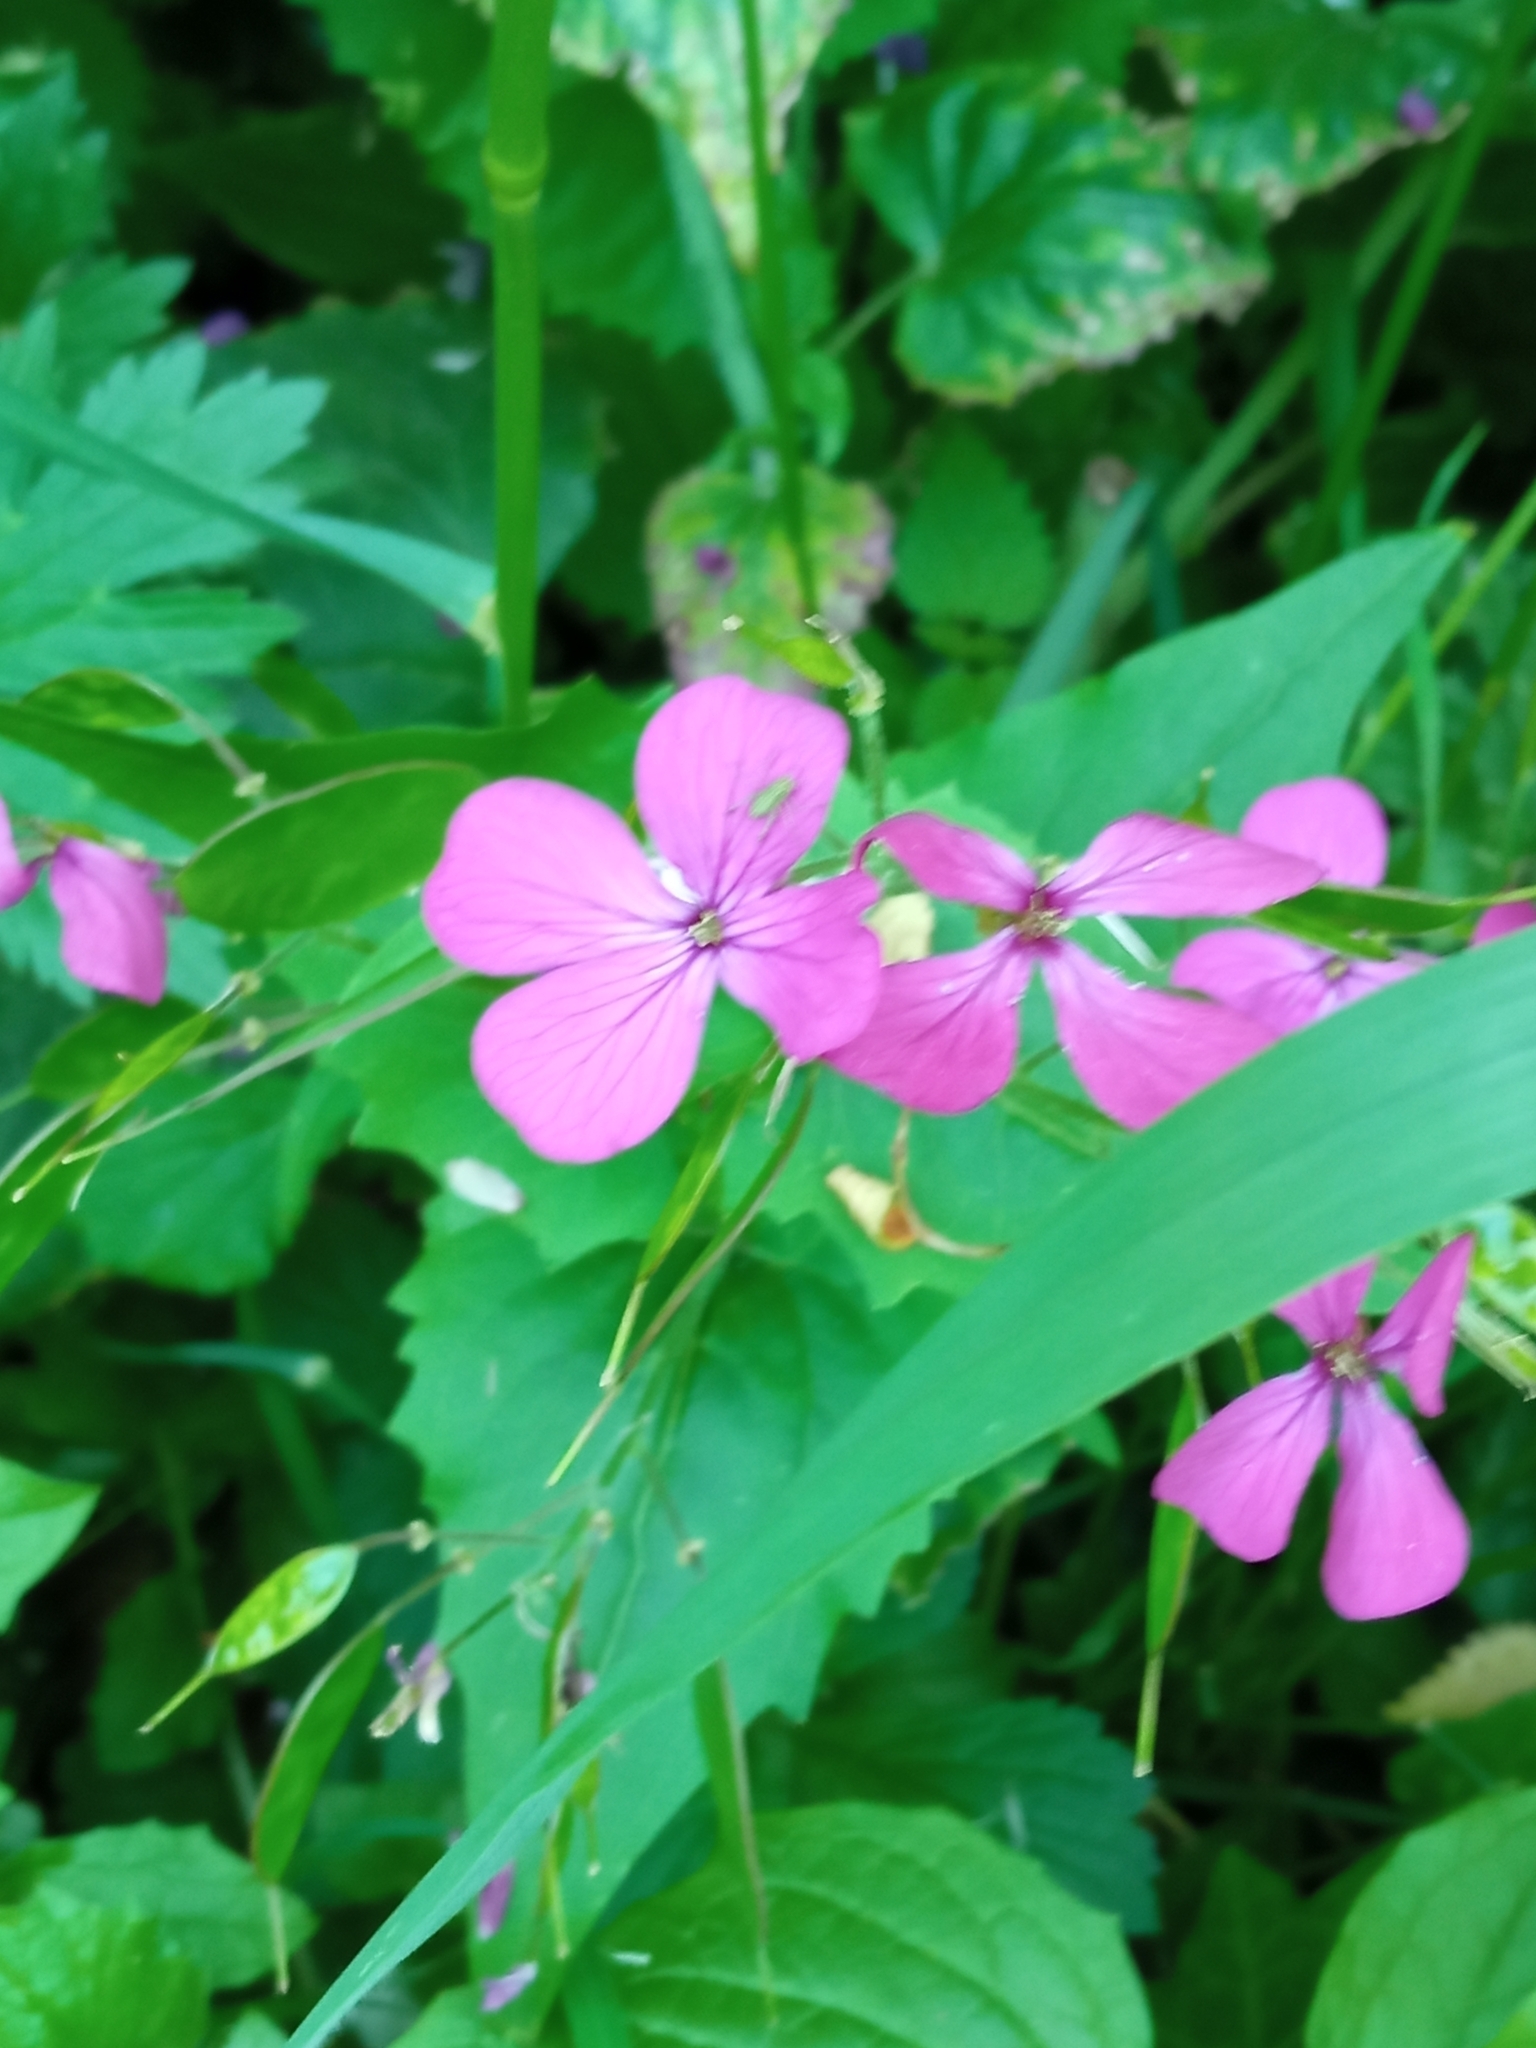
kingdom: Plantae
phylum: Tracheophyta
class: Magnoliopsida
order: Brassicales
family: Brassicaceae
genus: Lunaria
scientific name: Lunaria annua
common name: Honesty
